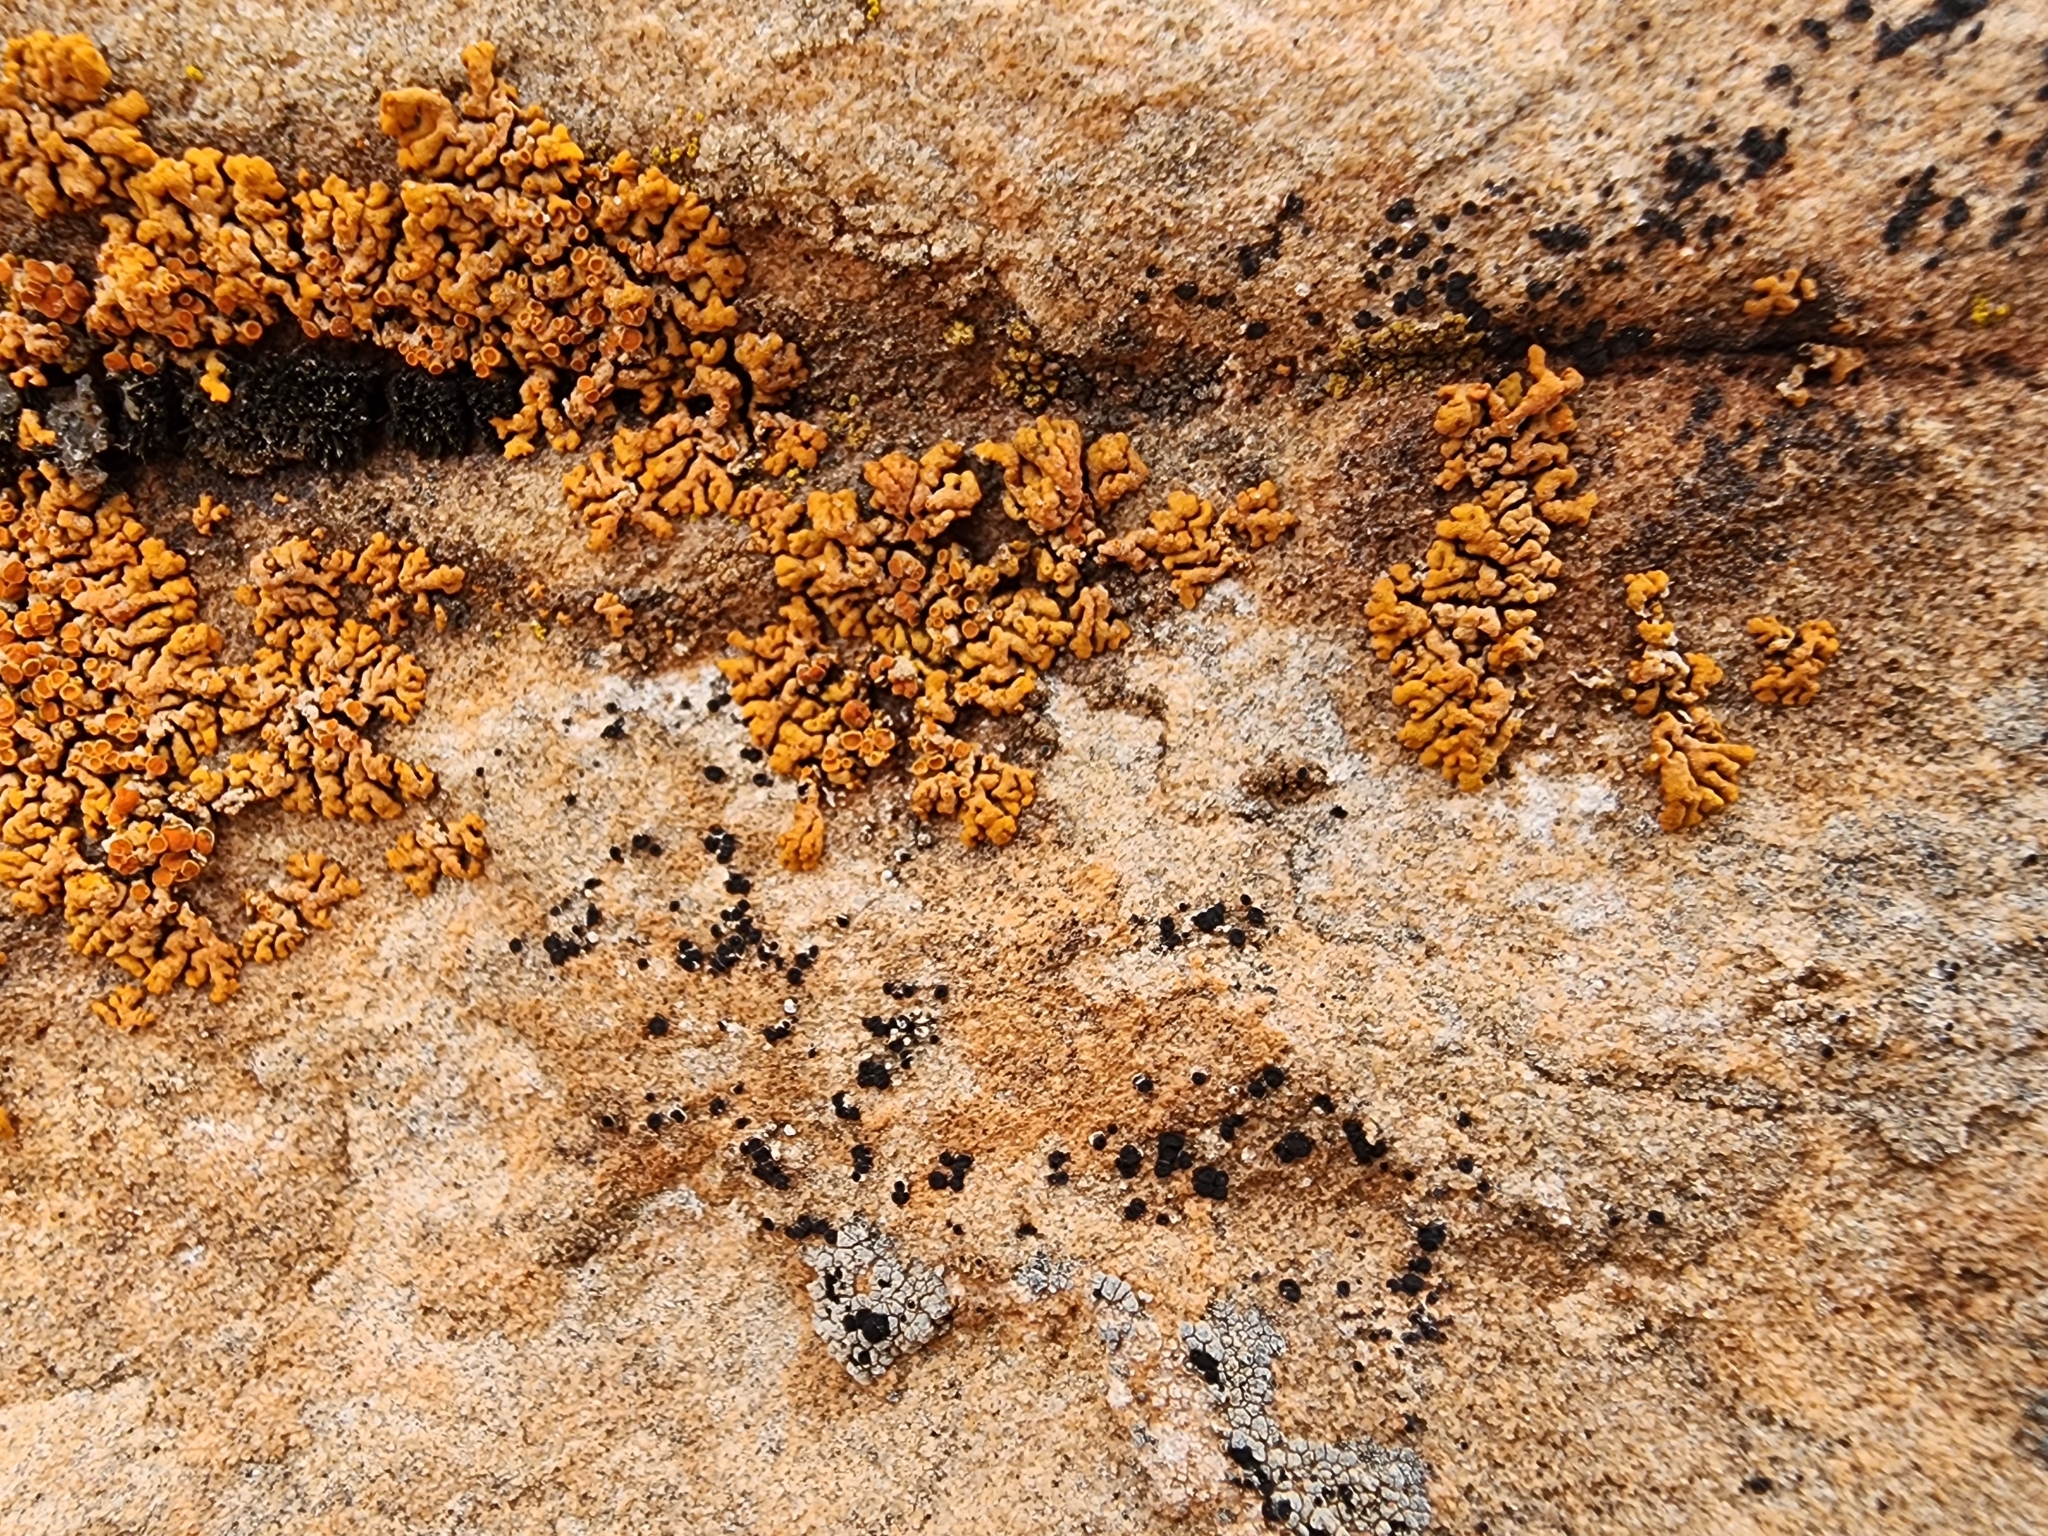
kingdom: Fungi
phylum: Ascomycota
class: Lecanoromycetes
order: Teloschistales
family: Teloschistaceae
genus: Xanthoria
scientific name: Xanthoria elegans
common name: Elegant sunburst lichen
